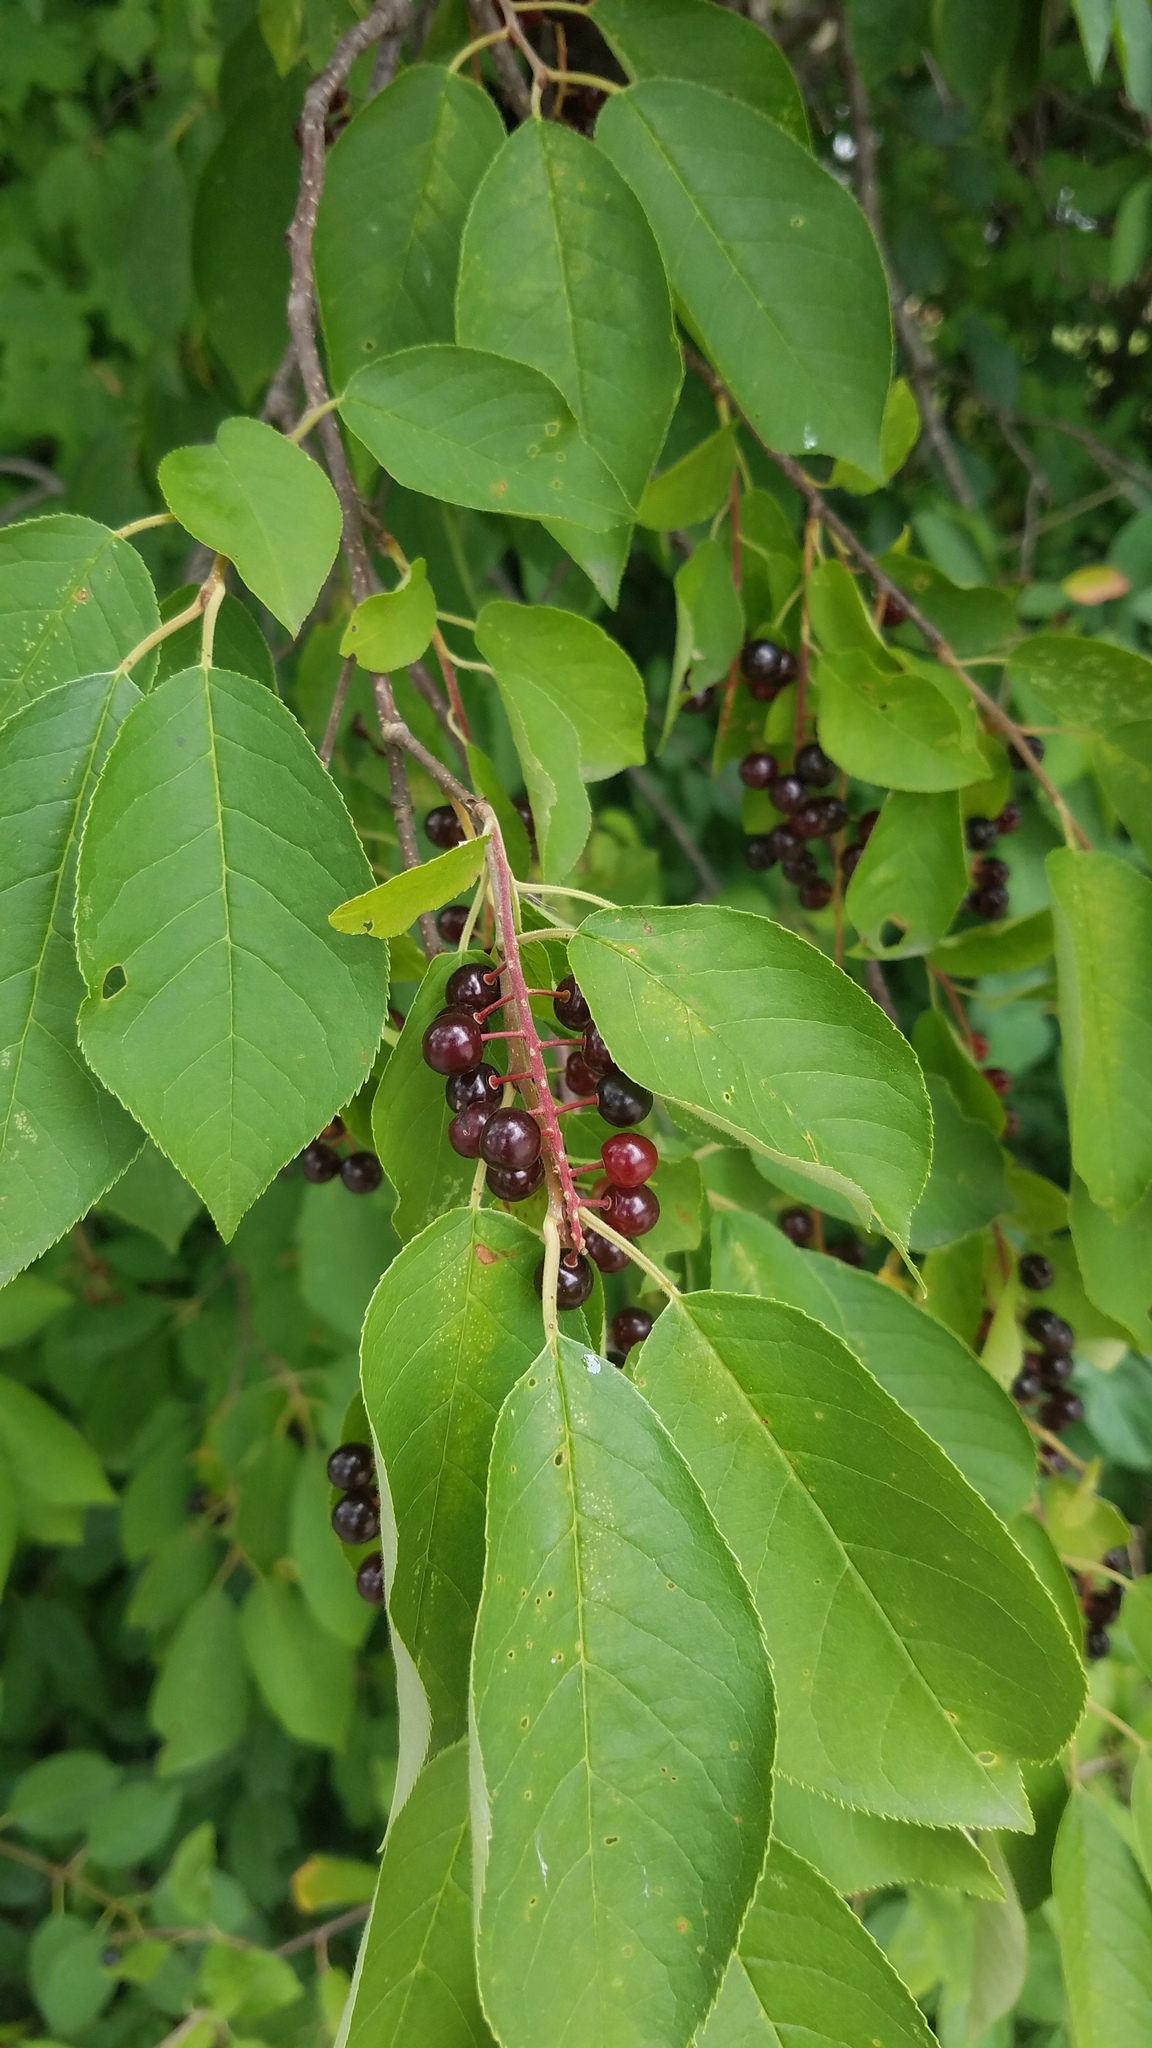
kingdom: Plantae
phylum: Tracheophyta
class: Magnoliopsida
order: Rosales
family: Rosaceae
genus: Prunus
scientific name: Prunus virginiana
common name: Chokecherry
